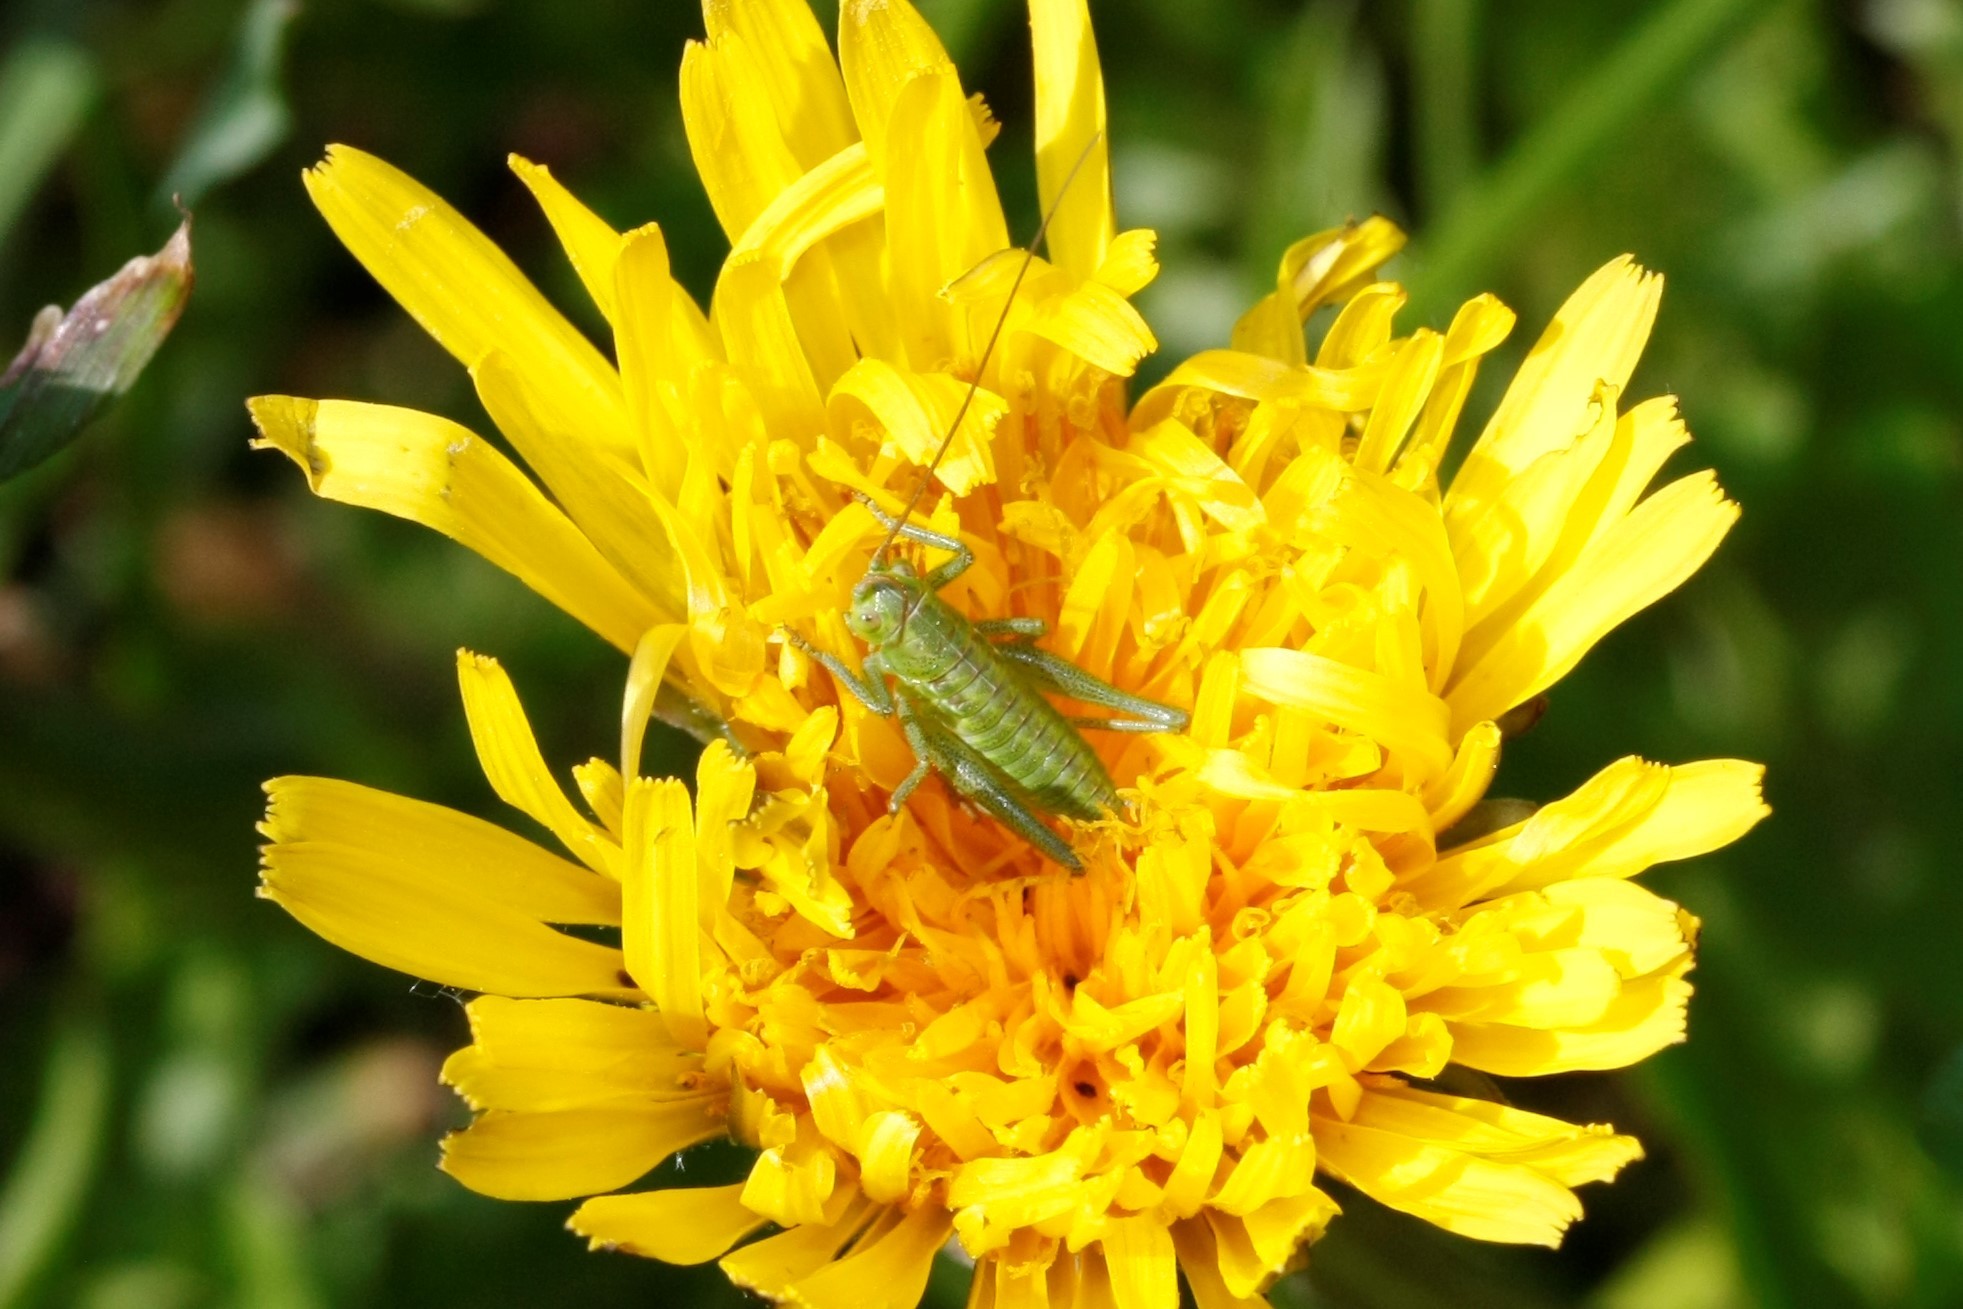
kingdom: Animalia
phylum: Arthropoda
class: Insecta
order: Orthoptera
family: Tettigoniidae
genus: Tettigonia
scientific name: Tettigonia viridissima
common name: Great green bush-cricket
